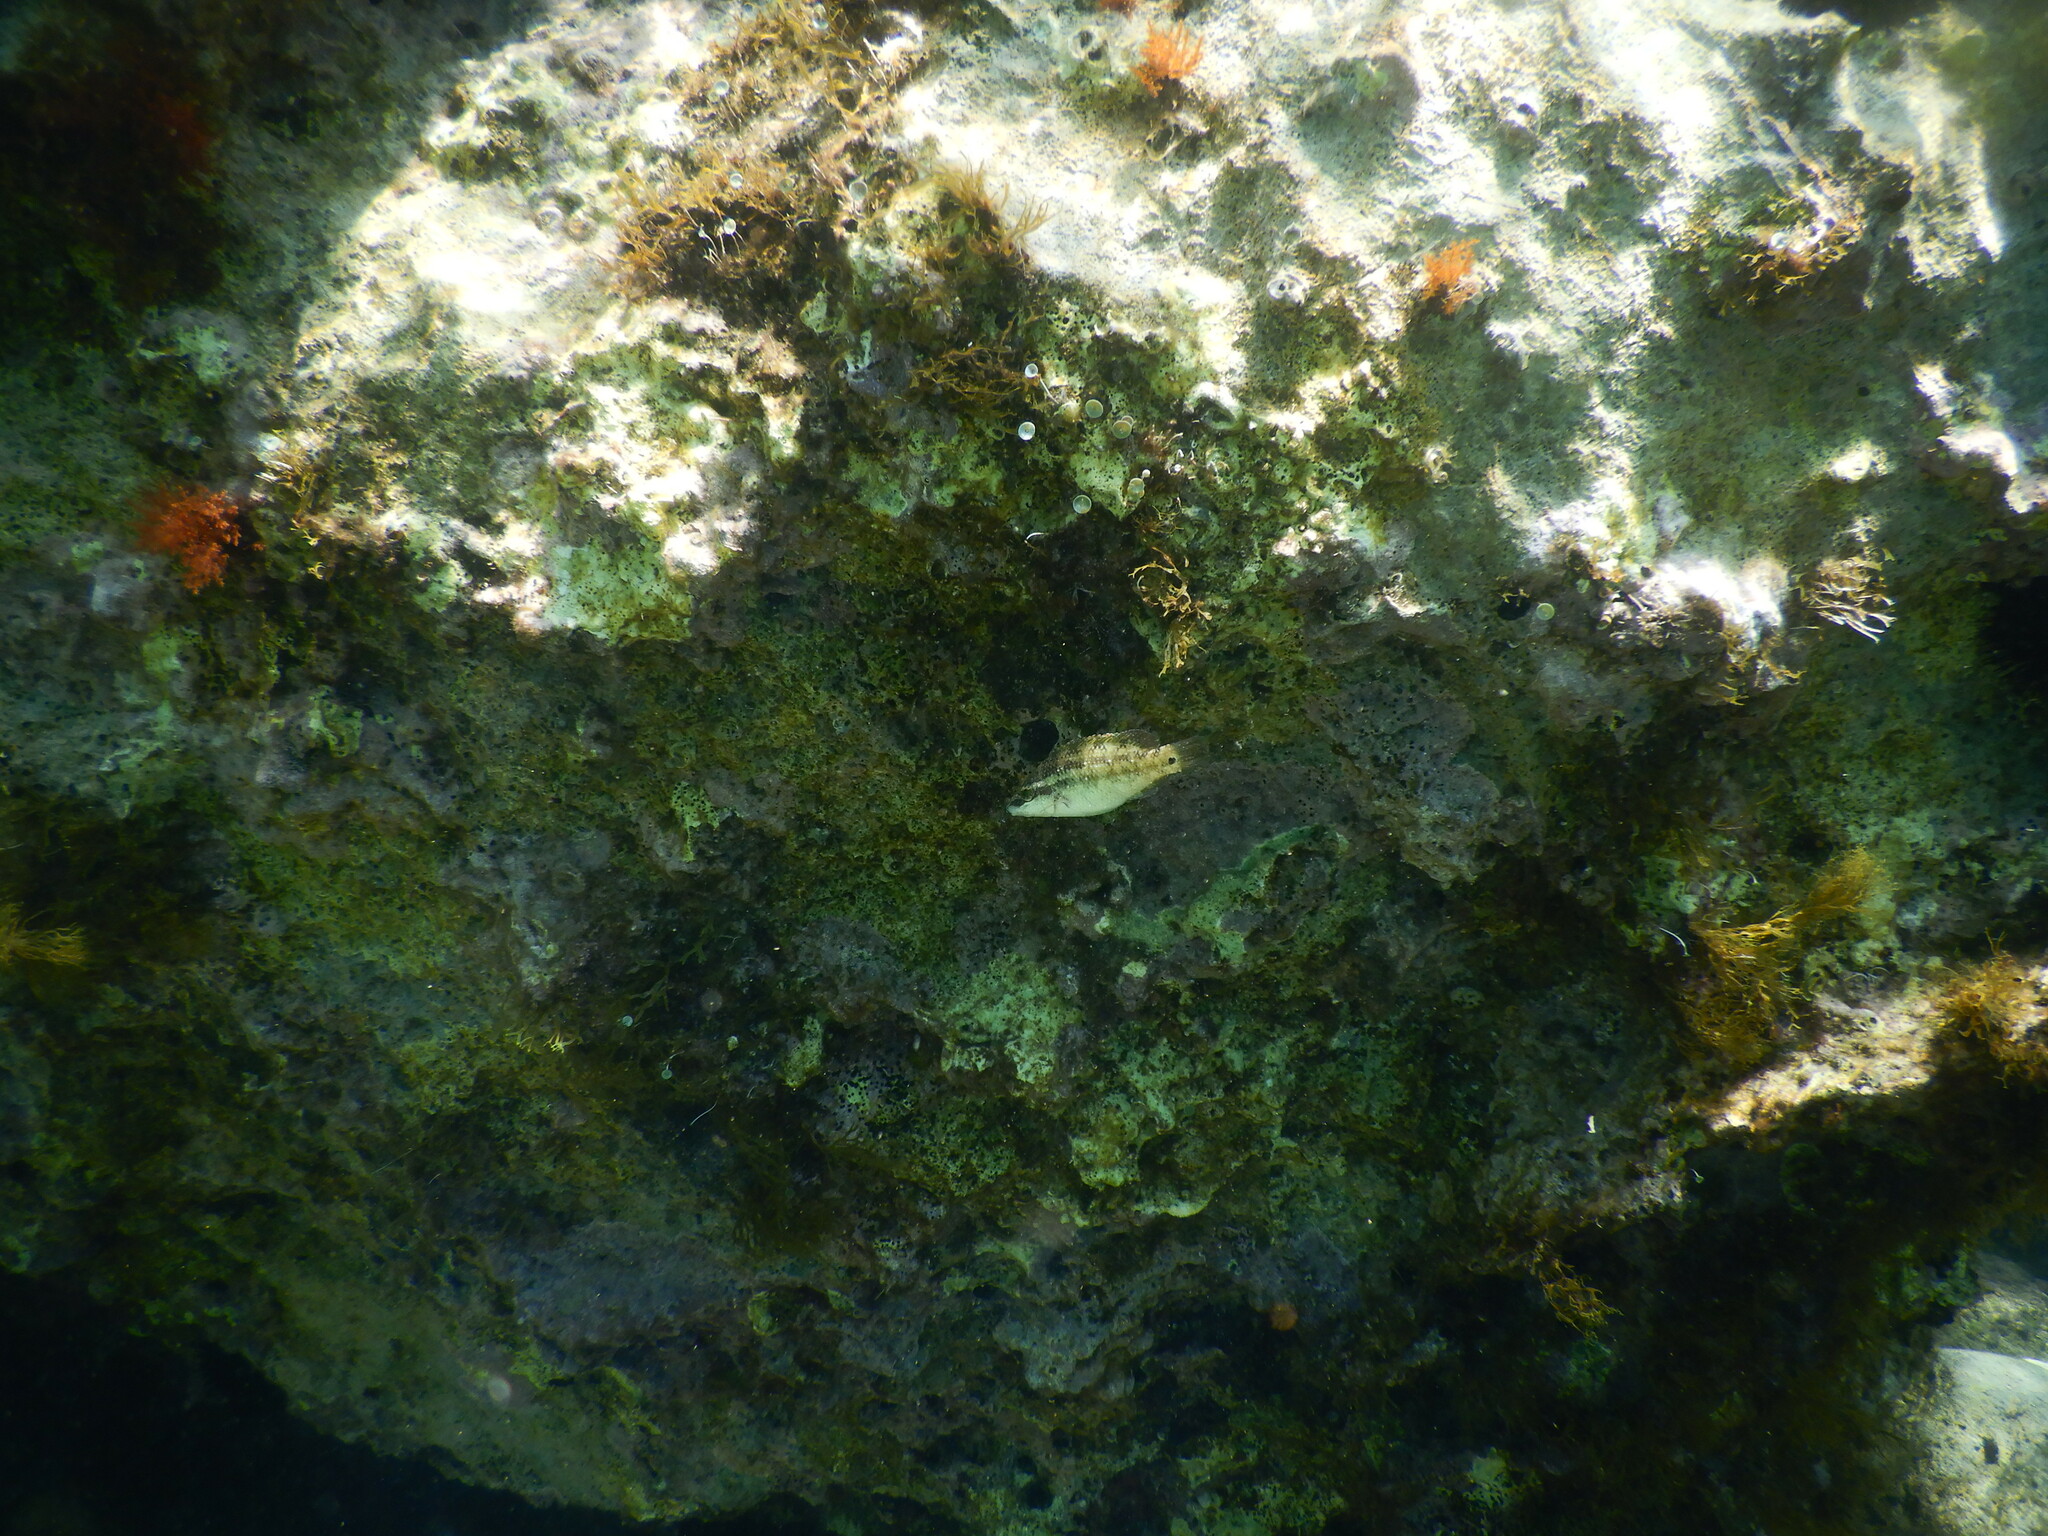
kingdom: Animalia
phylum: Chordata
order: Perciformes
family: Labridae
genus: Symphodus
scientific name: Symphodus tinca
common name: Peacock wrasse
